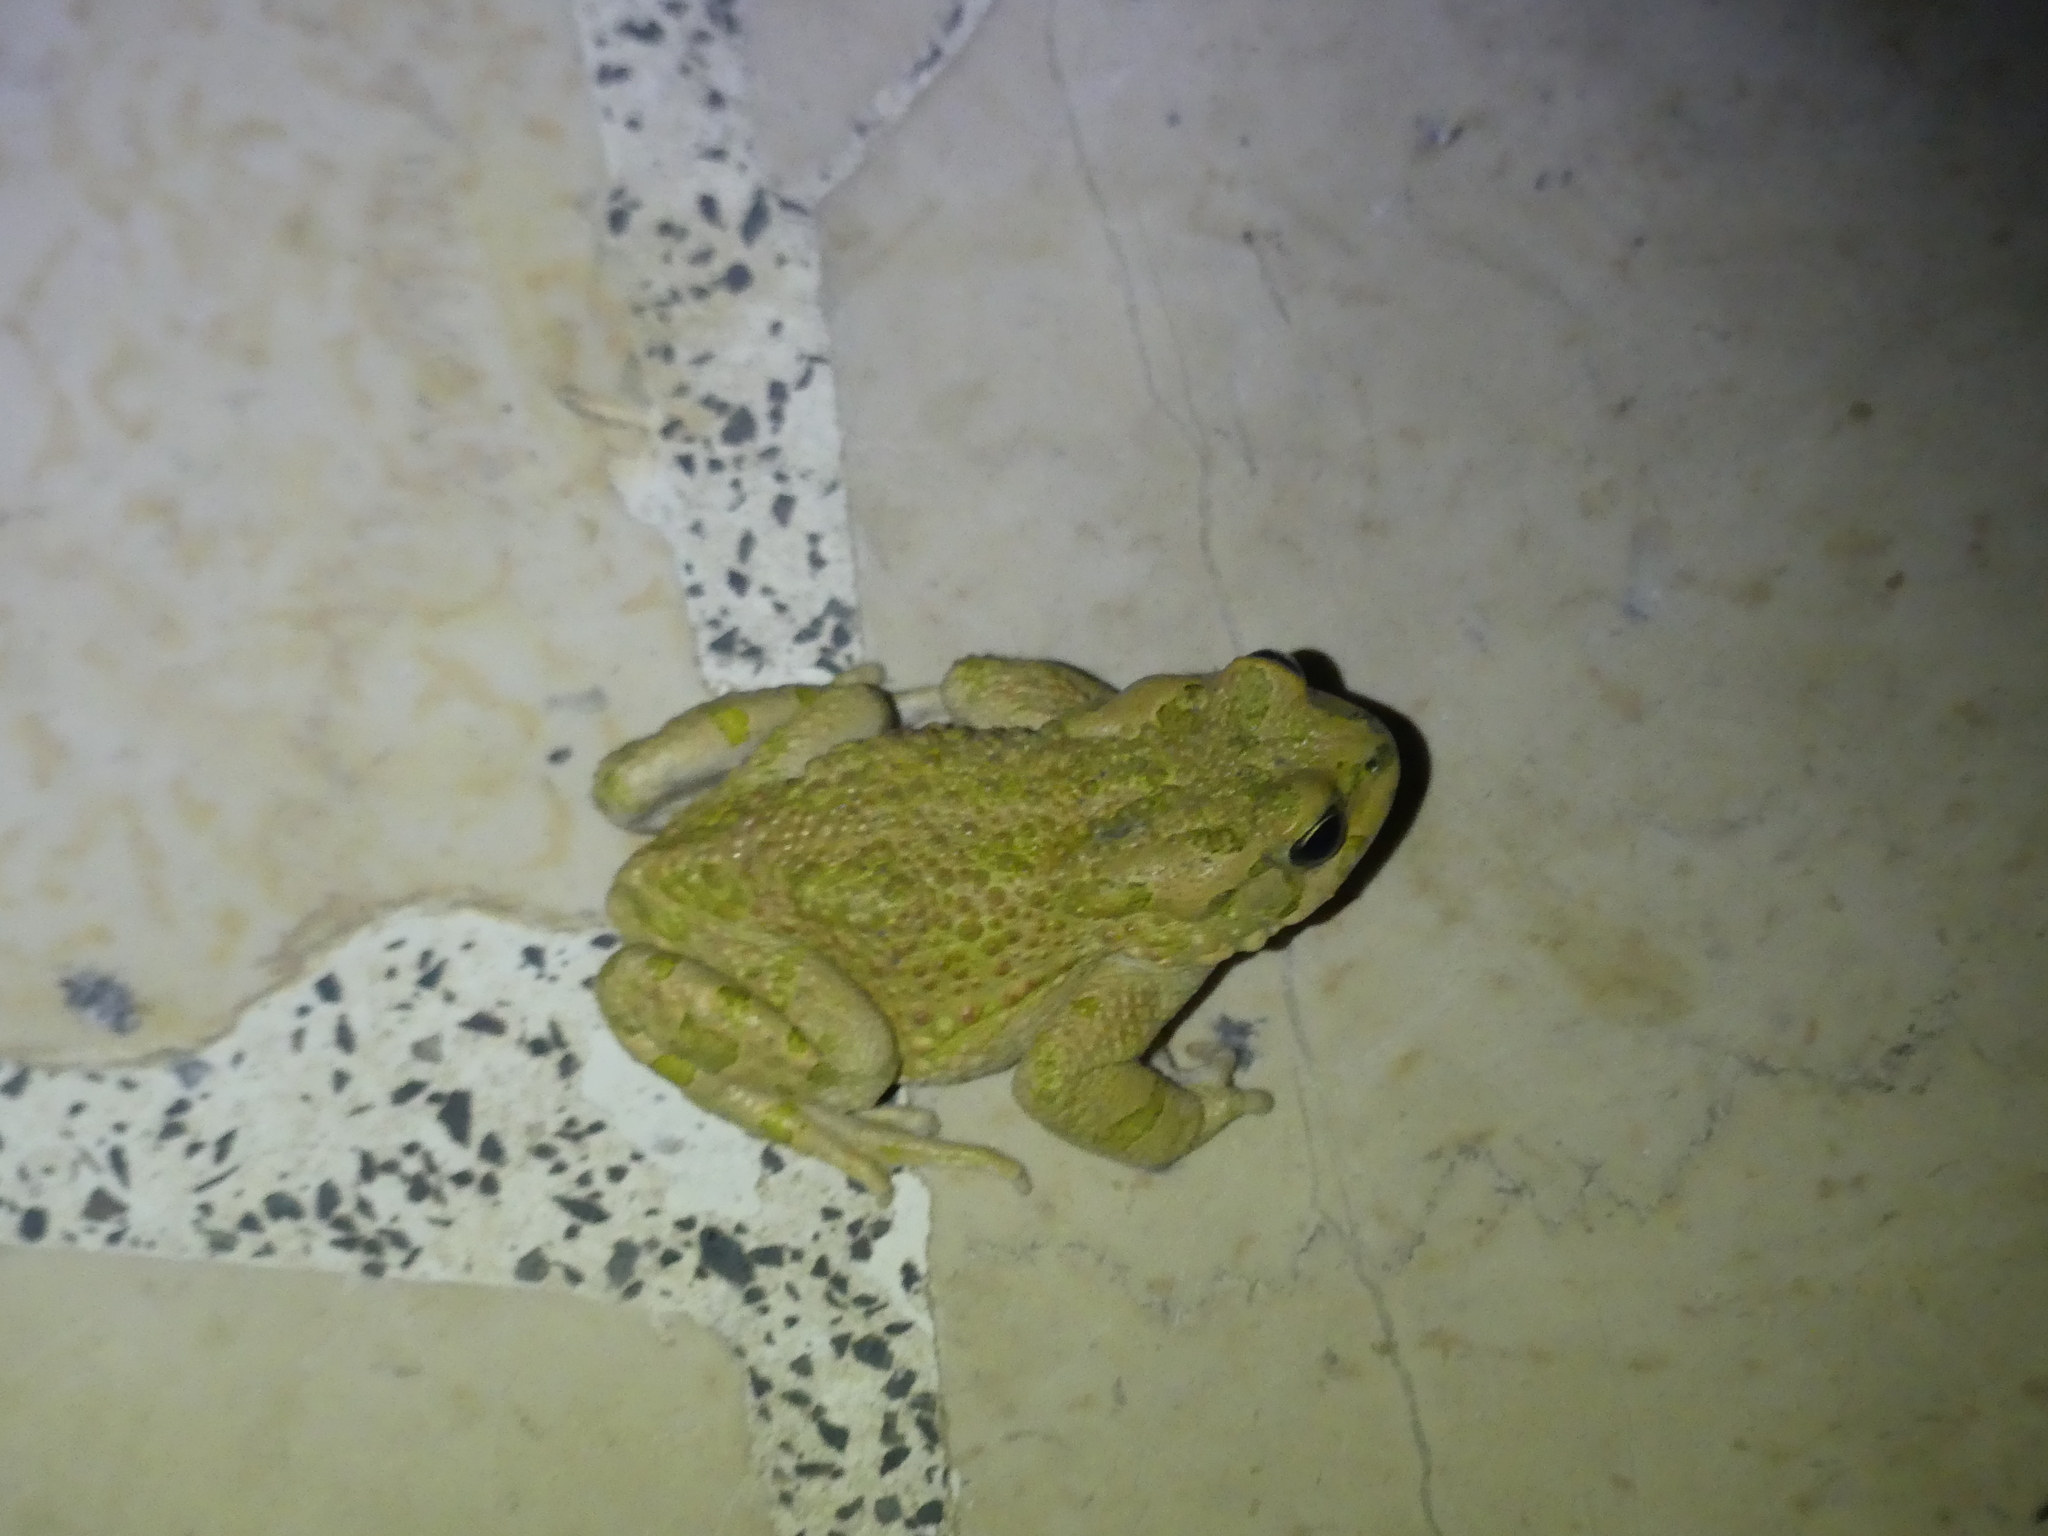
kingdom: Animalia
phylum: Chordata
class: Amphibia
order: Anura
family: Bufonidae
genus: Bufotes
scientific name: Bufotes viridis
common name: European green toad
